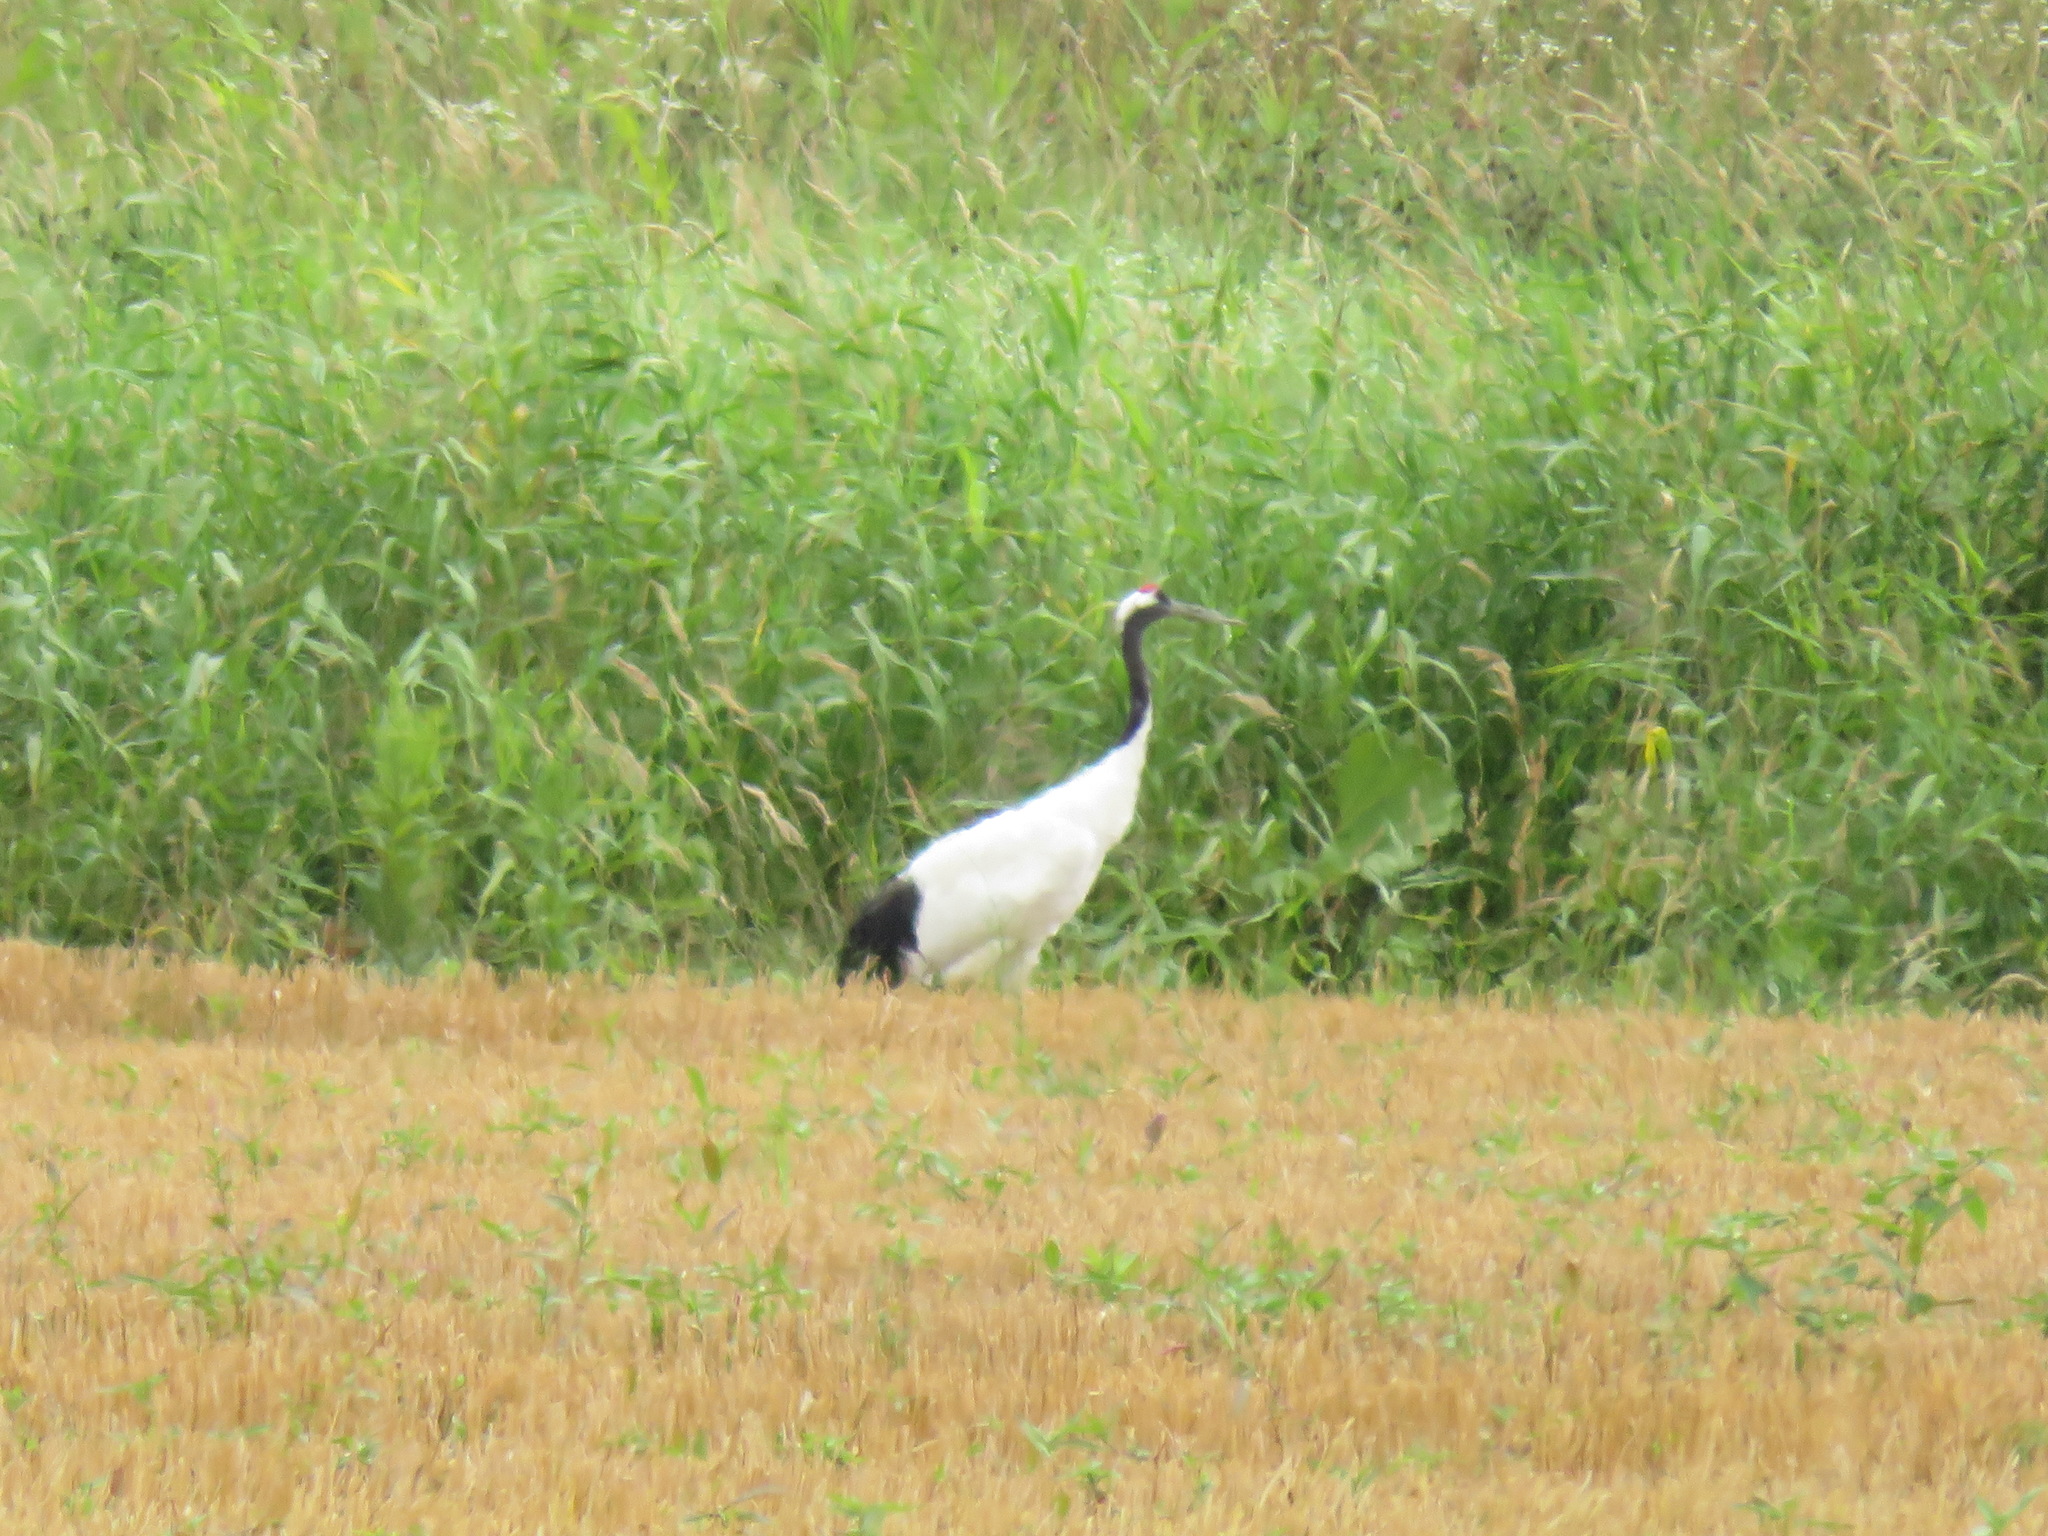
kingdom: Animalia
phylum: Chordata
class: Aves
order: Gruiformes
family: Gruidae
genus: Grus
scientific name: Grus japonensis
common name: Red-crowned crane
